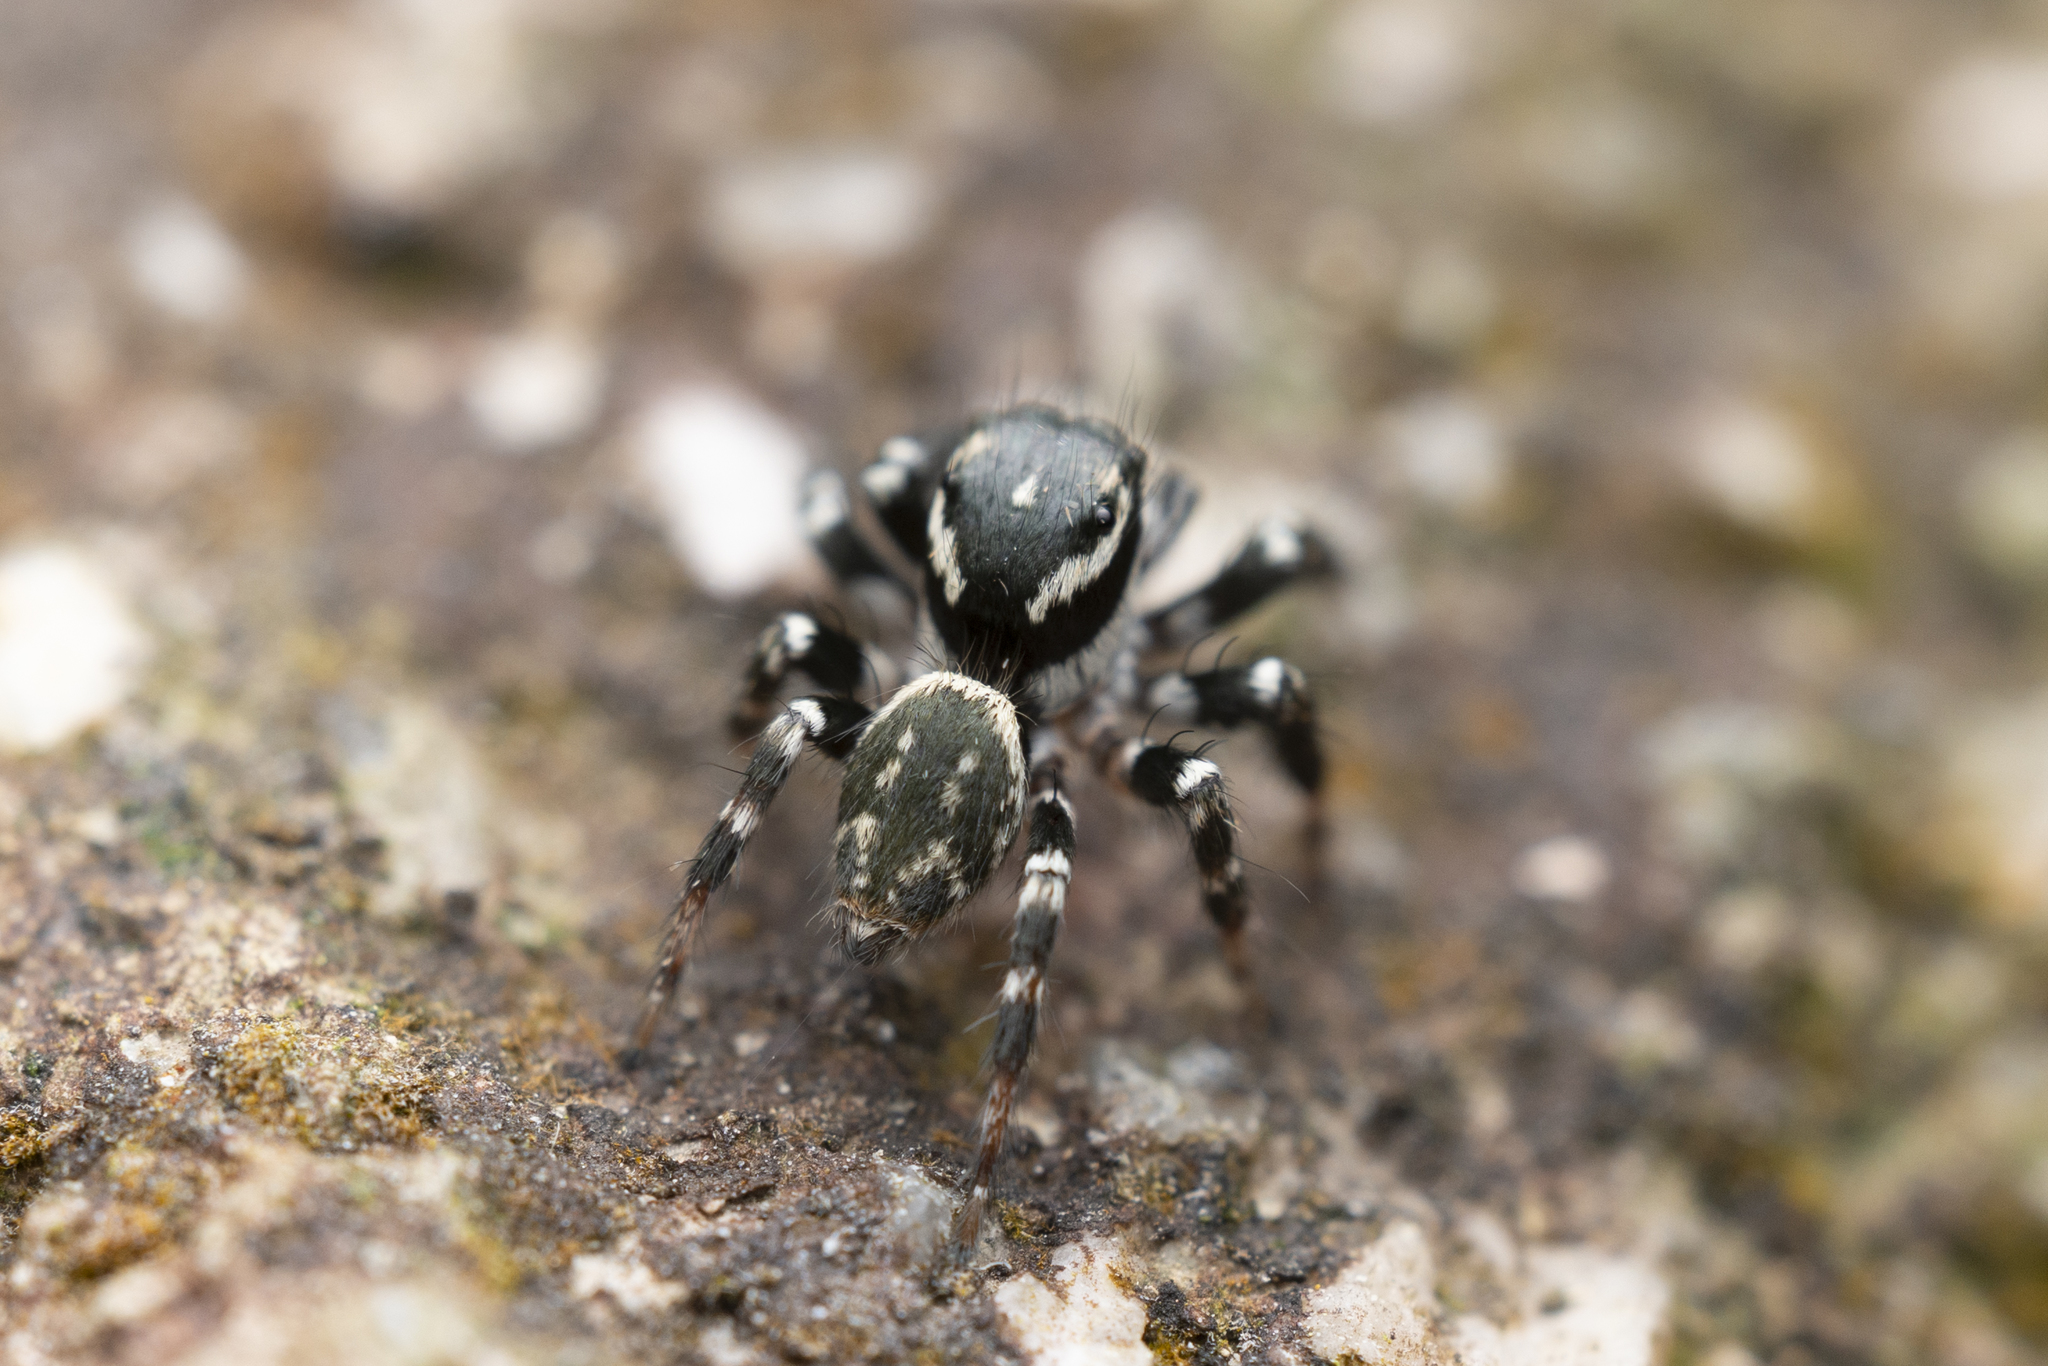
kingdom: Animalia
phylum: Arthropoda
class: Arachnida
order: Araneae
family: Salticidae
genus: Carrhotus
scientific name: Carrhotus sannio
